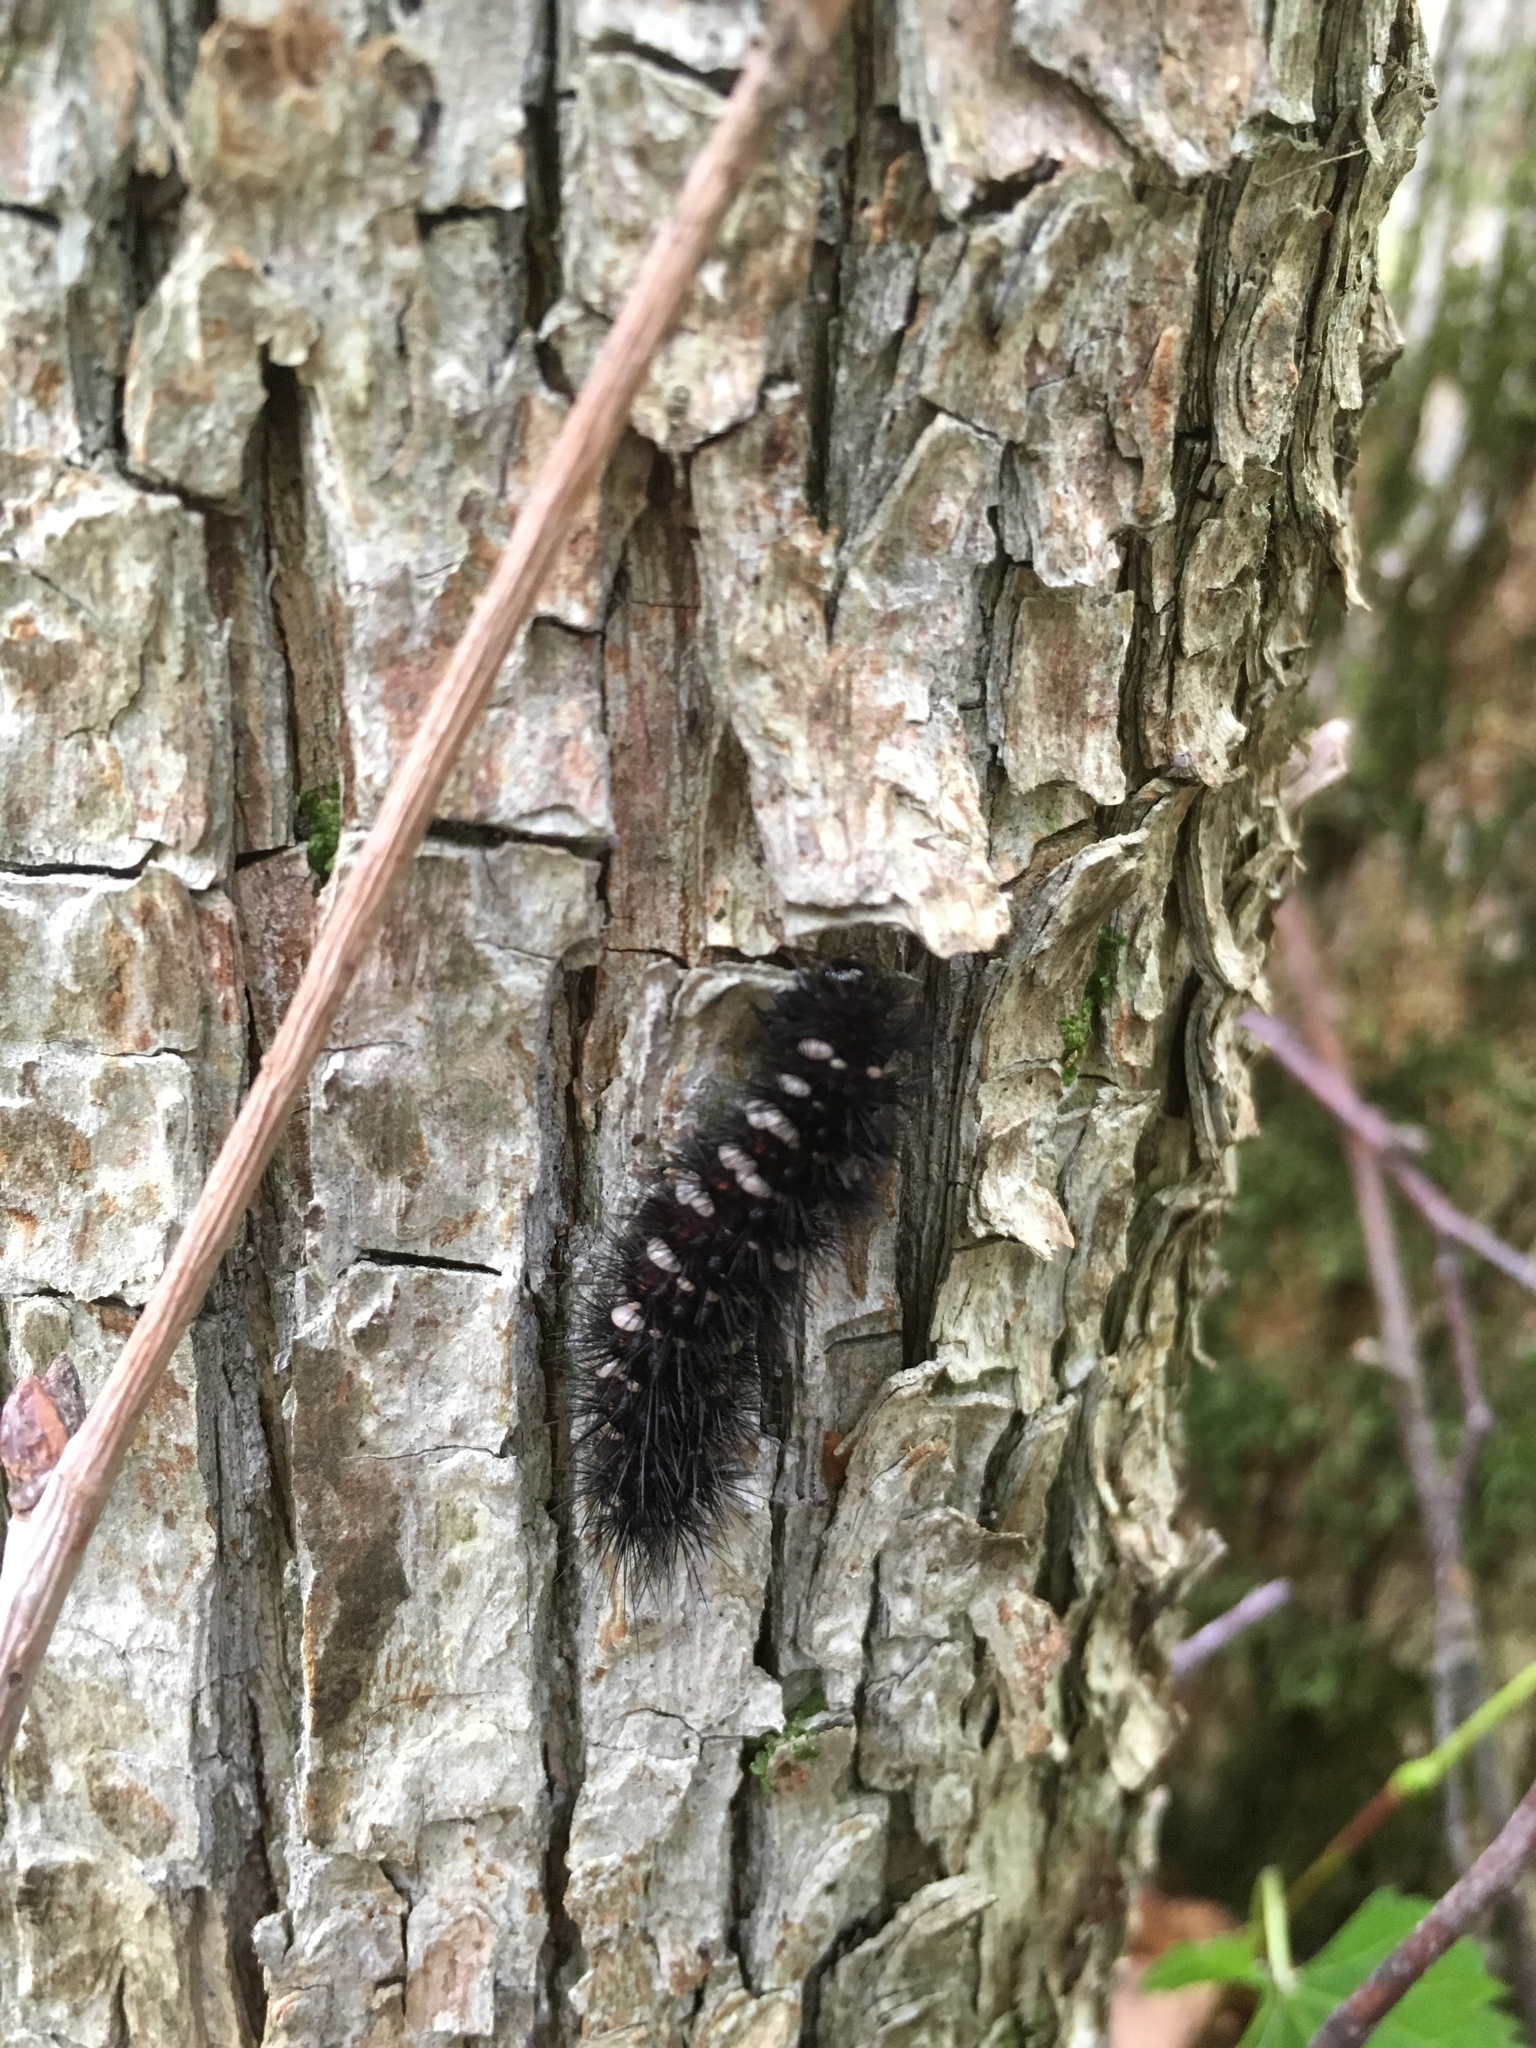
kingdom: Animalia
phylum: Arthropoda
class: Insecta
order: Lepidoptera
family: Erebidae
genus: Spilosoma
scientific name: Spilosoma congrua
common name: Agreeable tiger moth
